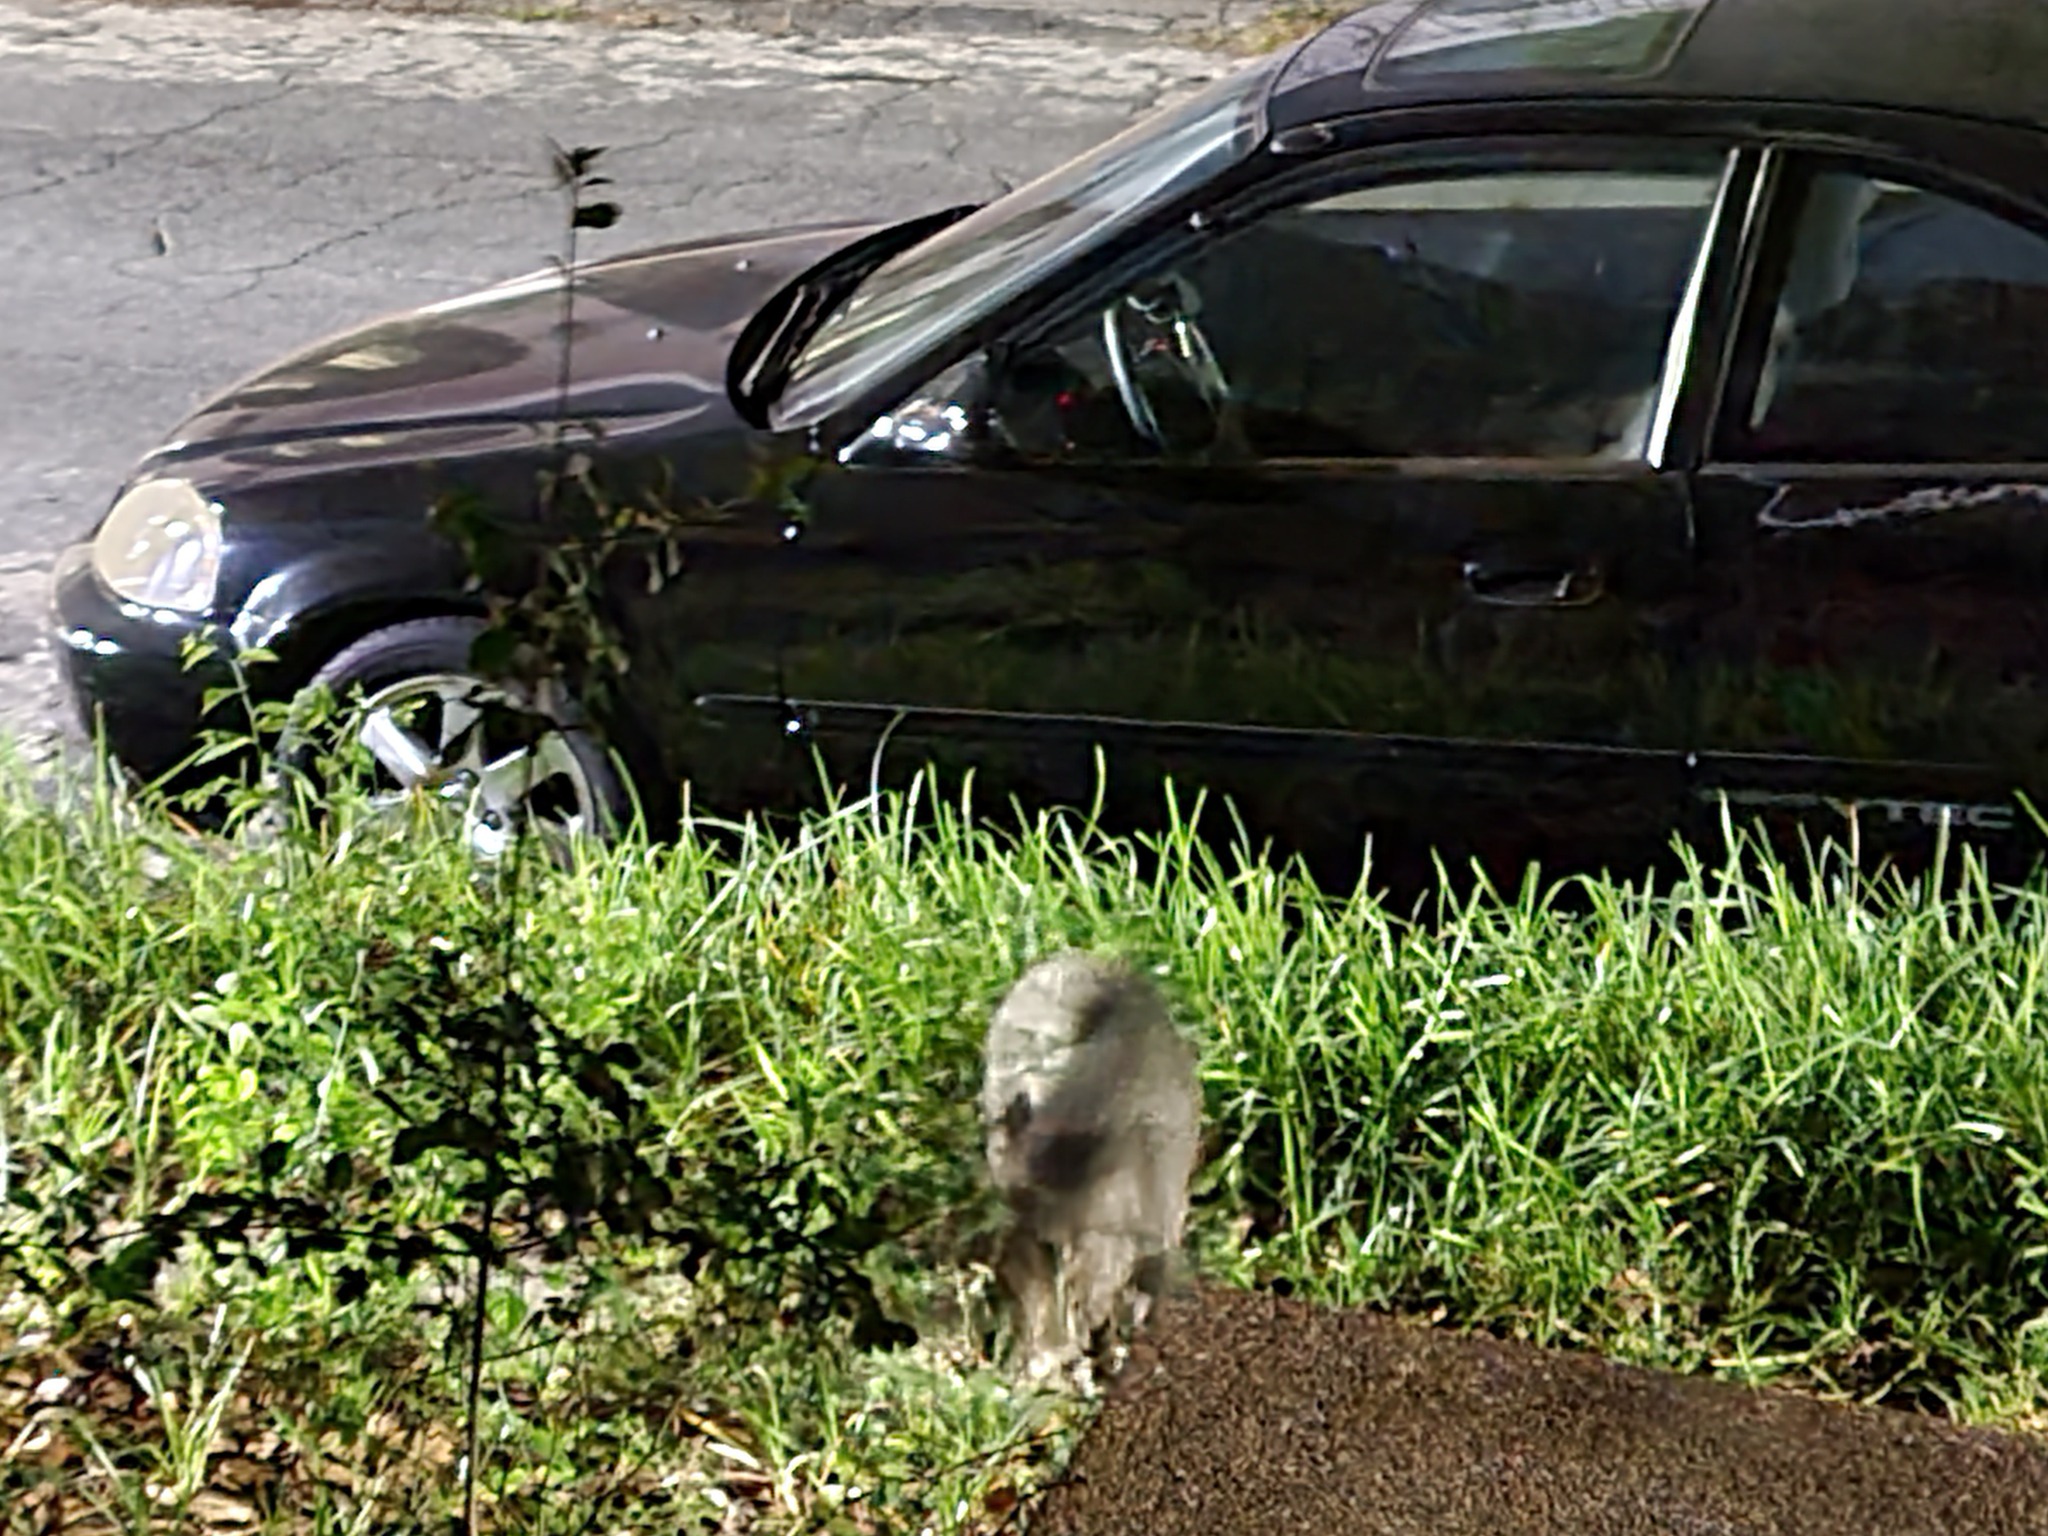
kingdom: Animalia
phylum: Chordata
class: Mammalia
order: Artiodactyla
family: Tayassuidae
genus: Pecari
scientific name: Pecari tajacu
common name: Collared peccary
